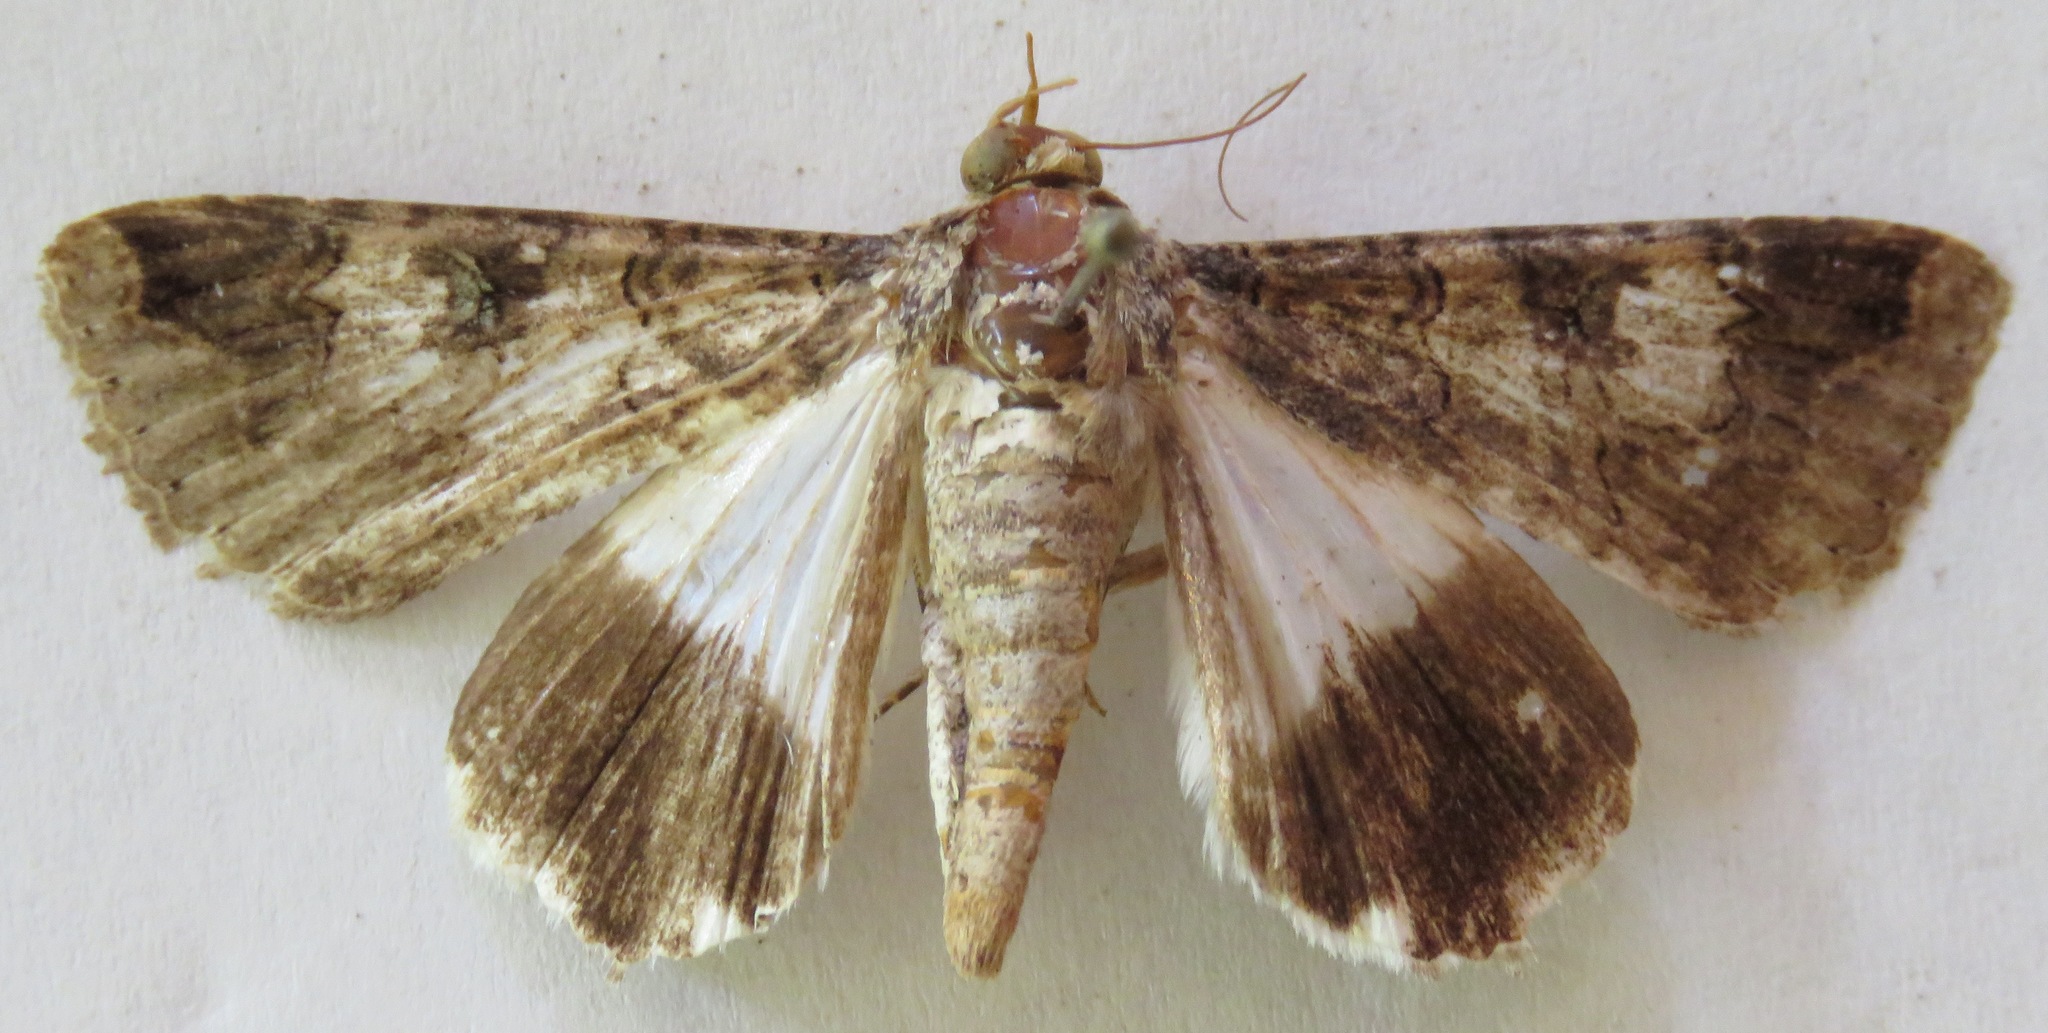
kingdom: Animalia
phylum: Arthropoda
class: Insecta
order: Lepidoptera
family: Erebidae
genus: Melipotis
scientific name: Melipotis famelica
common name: Famelica melipotis moth
